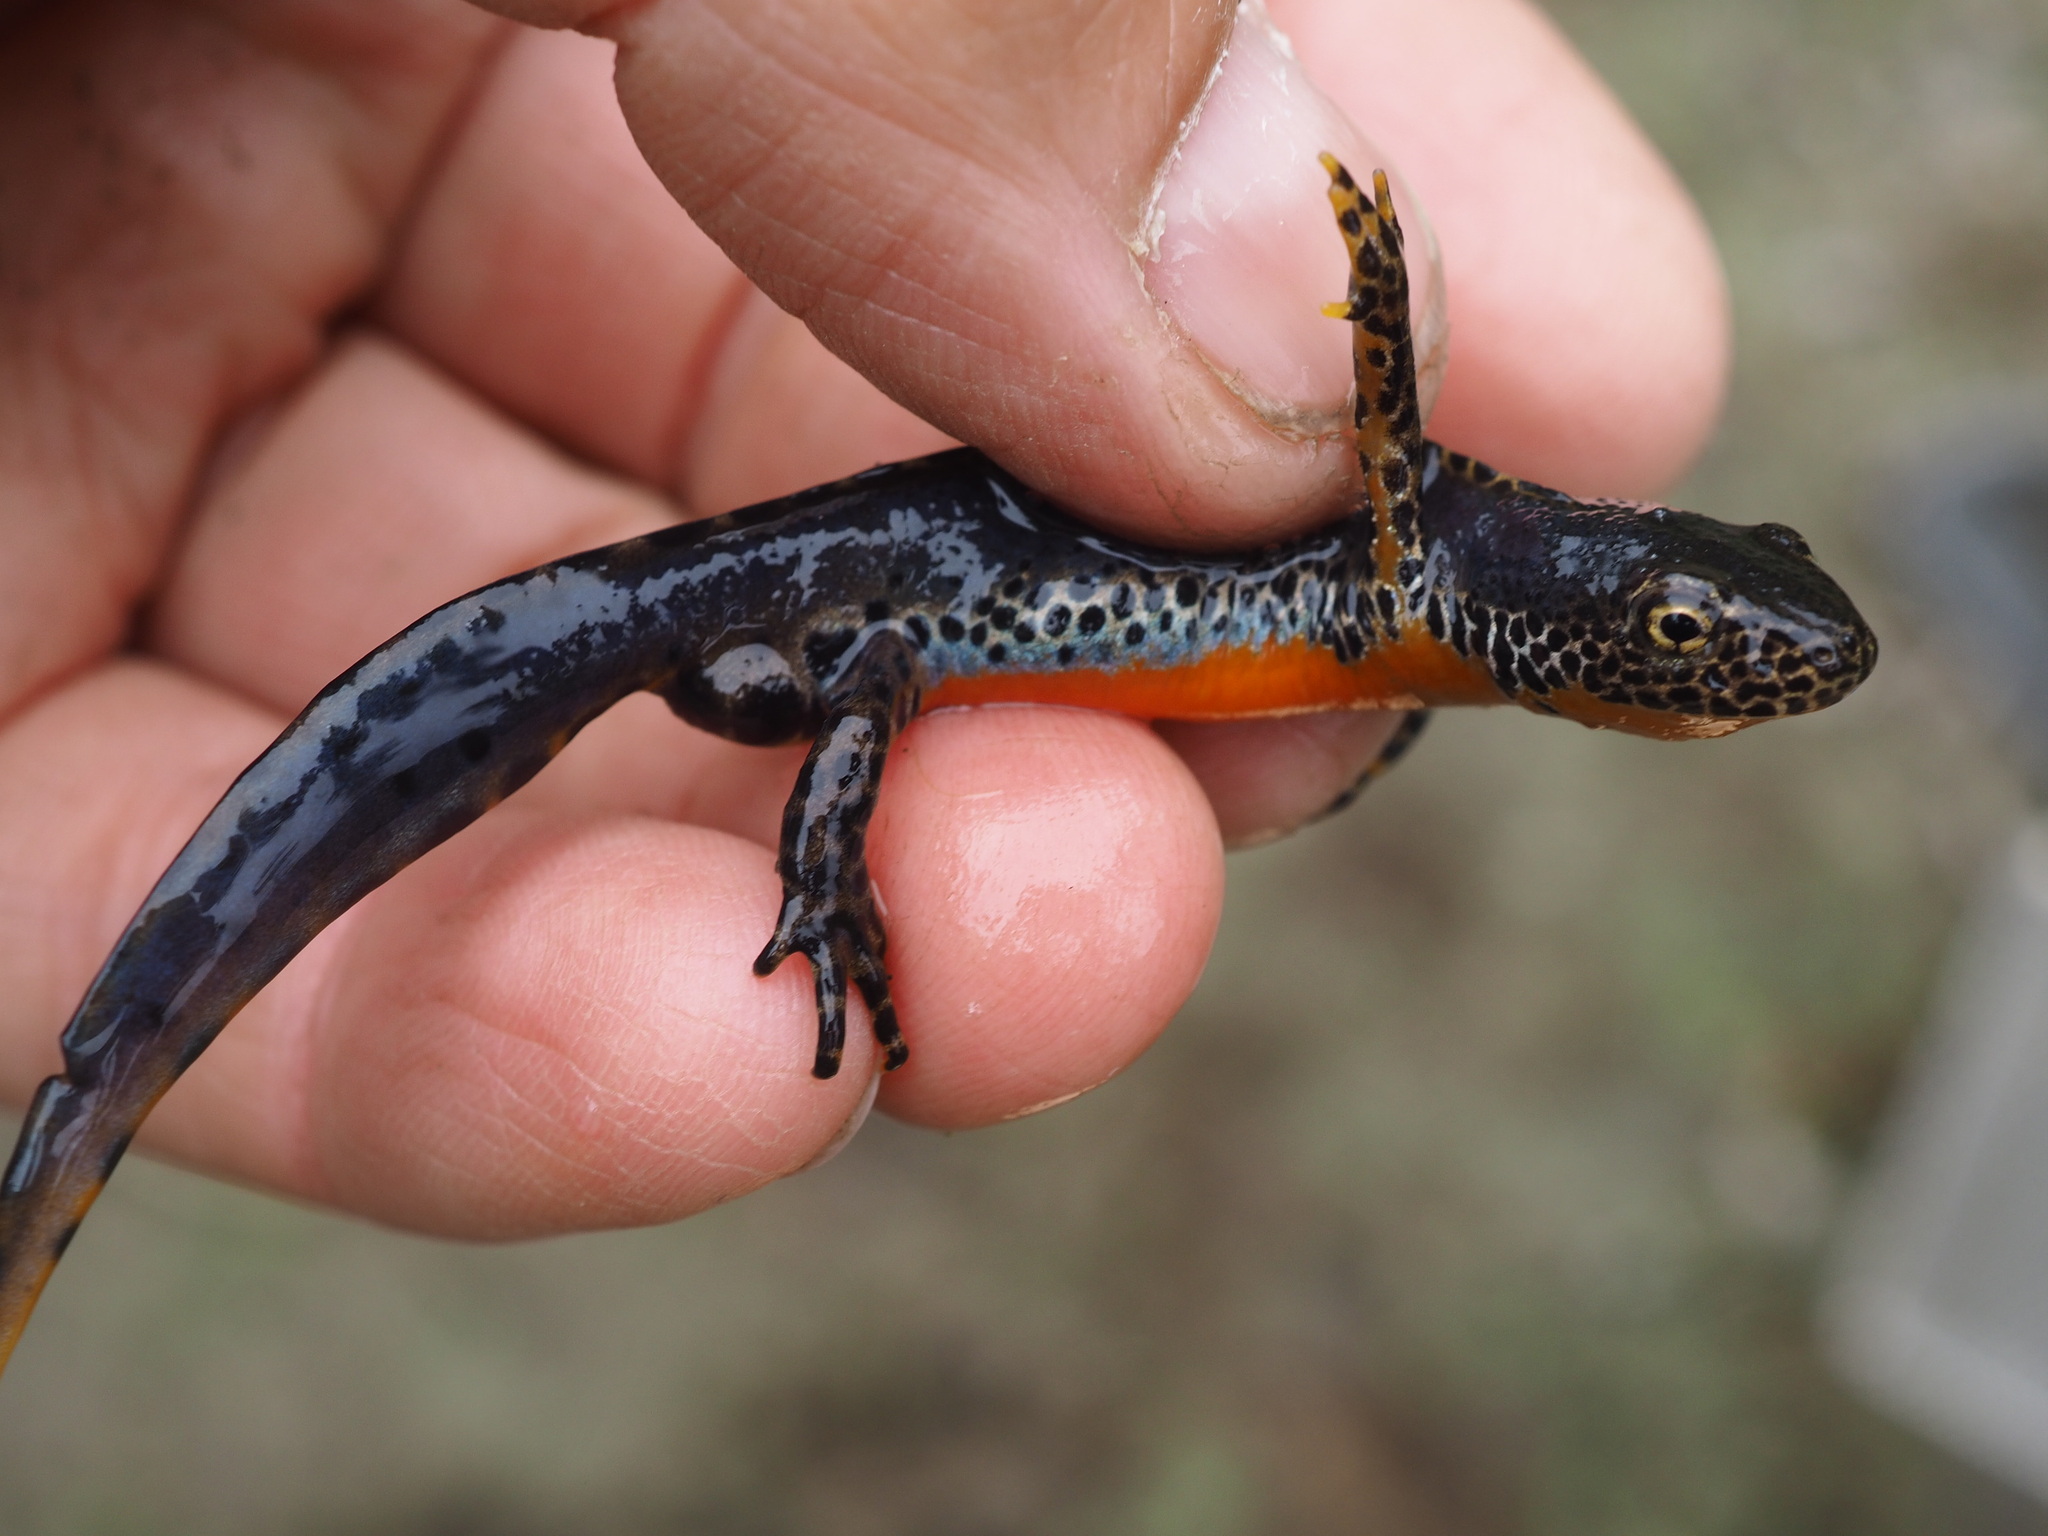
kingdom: Animalia
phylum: Chordata
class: Amphibia
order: Caudata
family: Salamandridae
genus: Ichthyosaura
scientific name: Ichthyosaura alpestris
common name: Alpine newt
